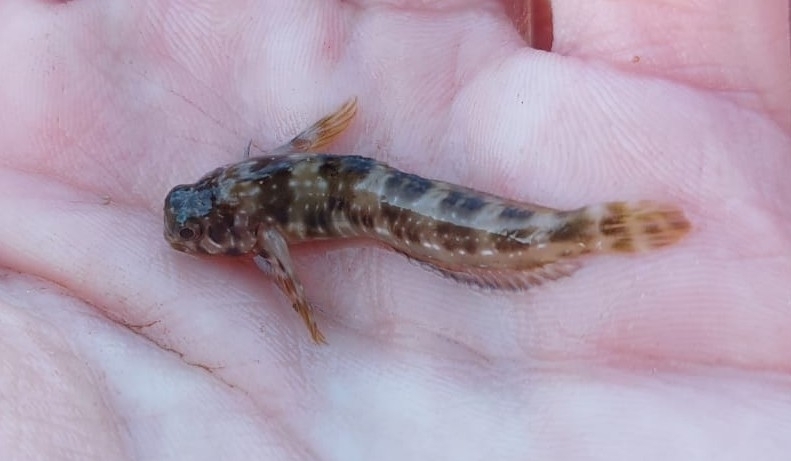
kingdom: Animalia
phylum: Chordata
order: Perciformes
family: Blenniidae
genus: Scartella
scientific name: Scartella cristata
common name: Molly miller
